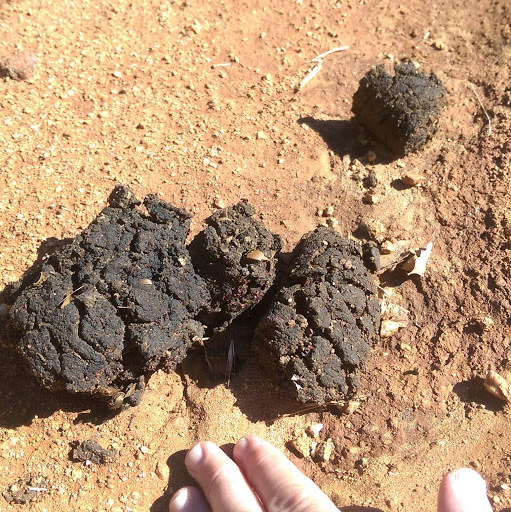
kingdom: Animalia
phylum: Chordata
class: Mammalia
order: Carnivora
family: Ursidae
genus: Ursus
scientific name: Ursus americanus
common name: American black bear
